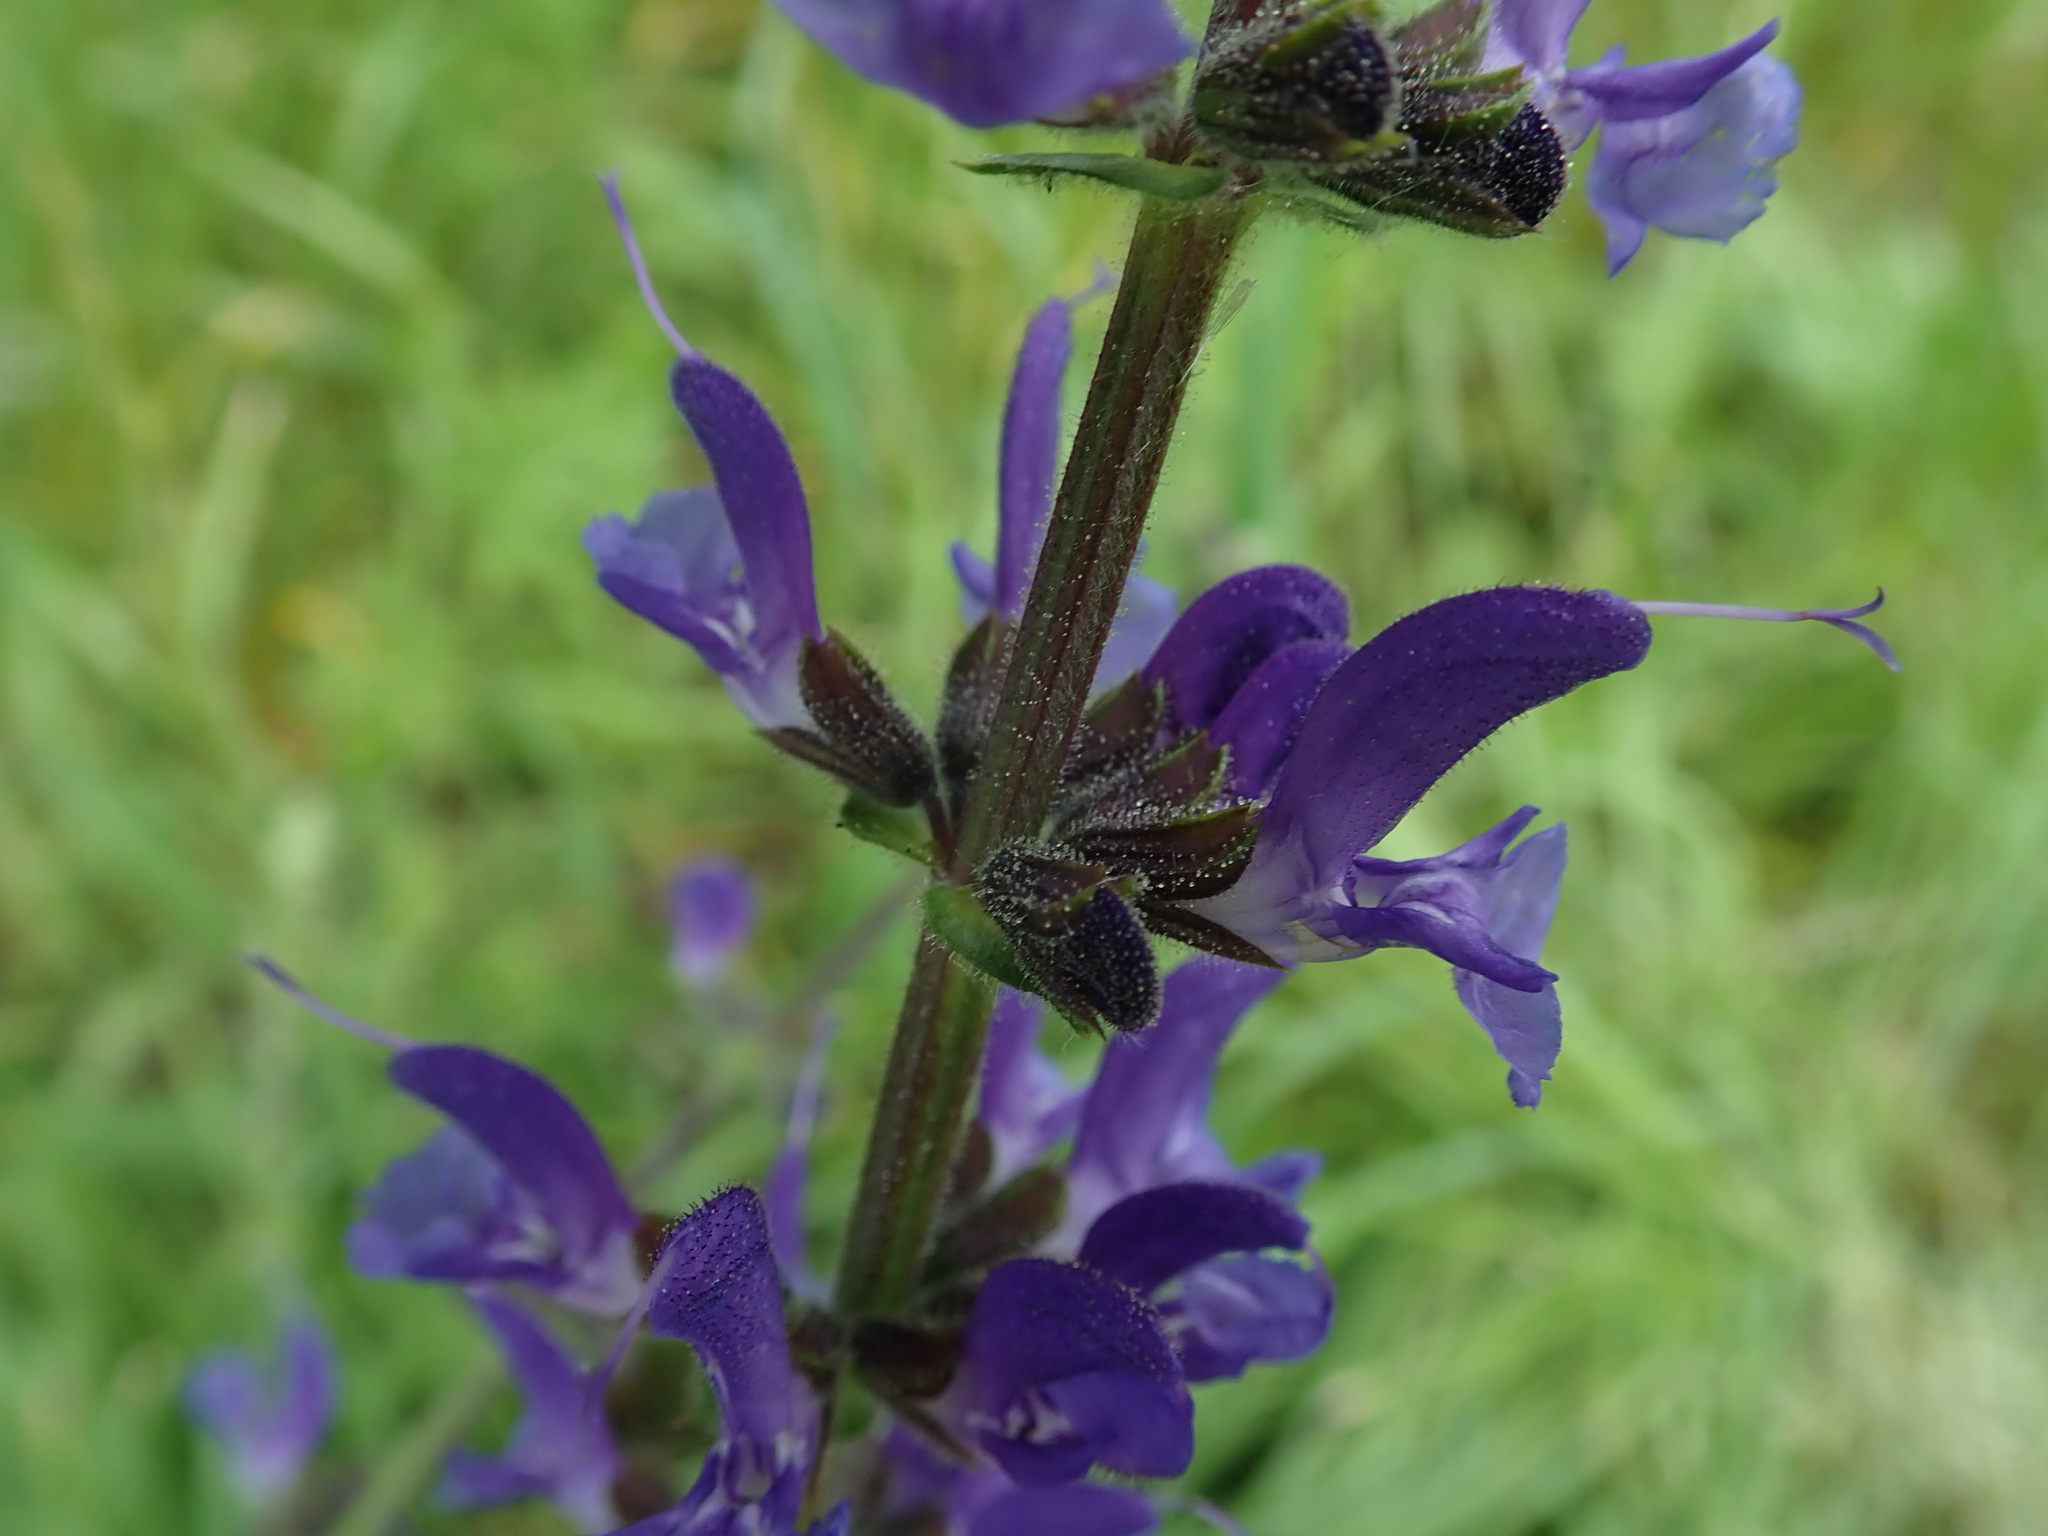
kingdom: Plantae
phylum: Tracheophyta
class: Magnoliopsida
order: Lamiales
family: Lamiaceae
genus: Salvia
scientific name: Salvia pratensis
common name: Meadow sage
